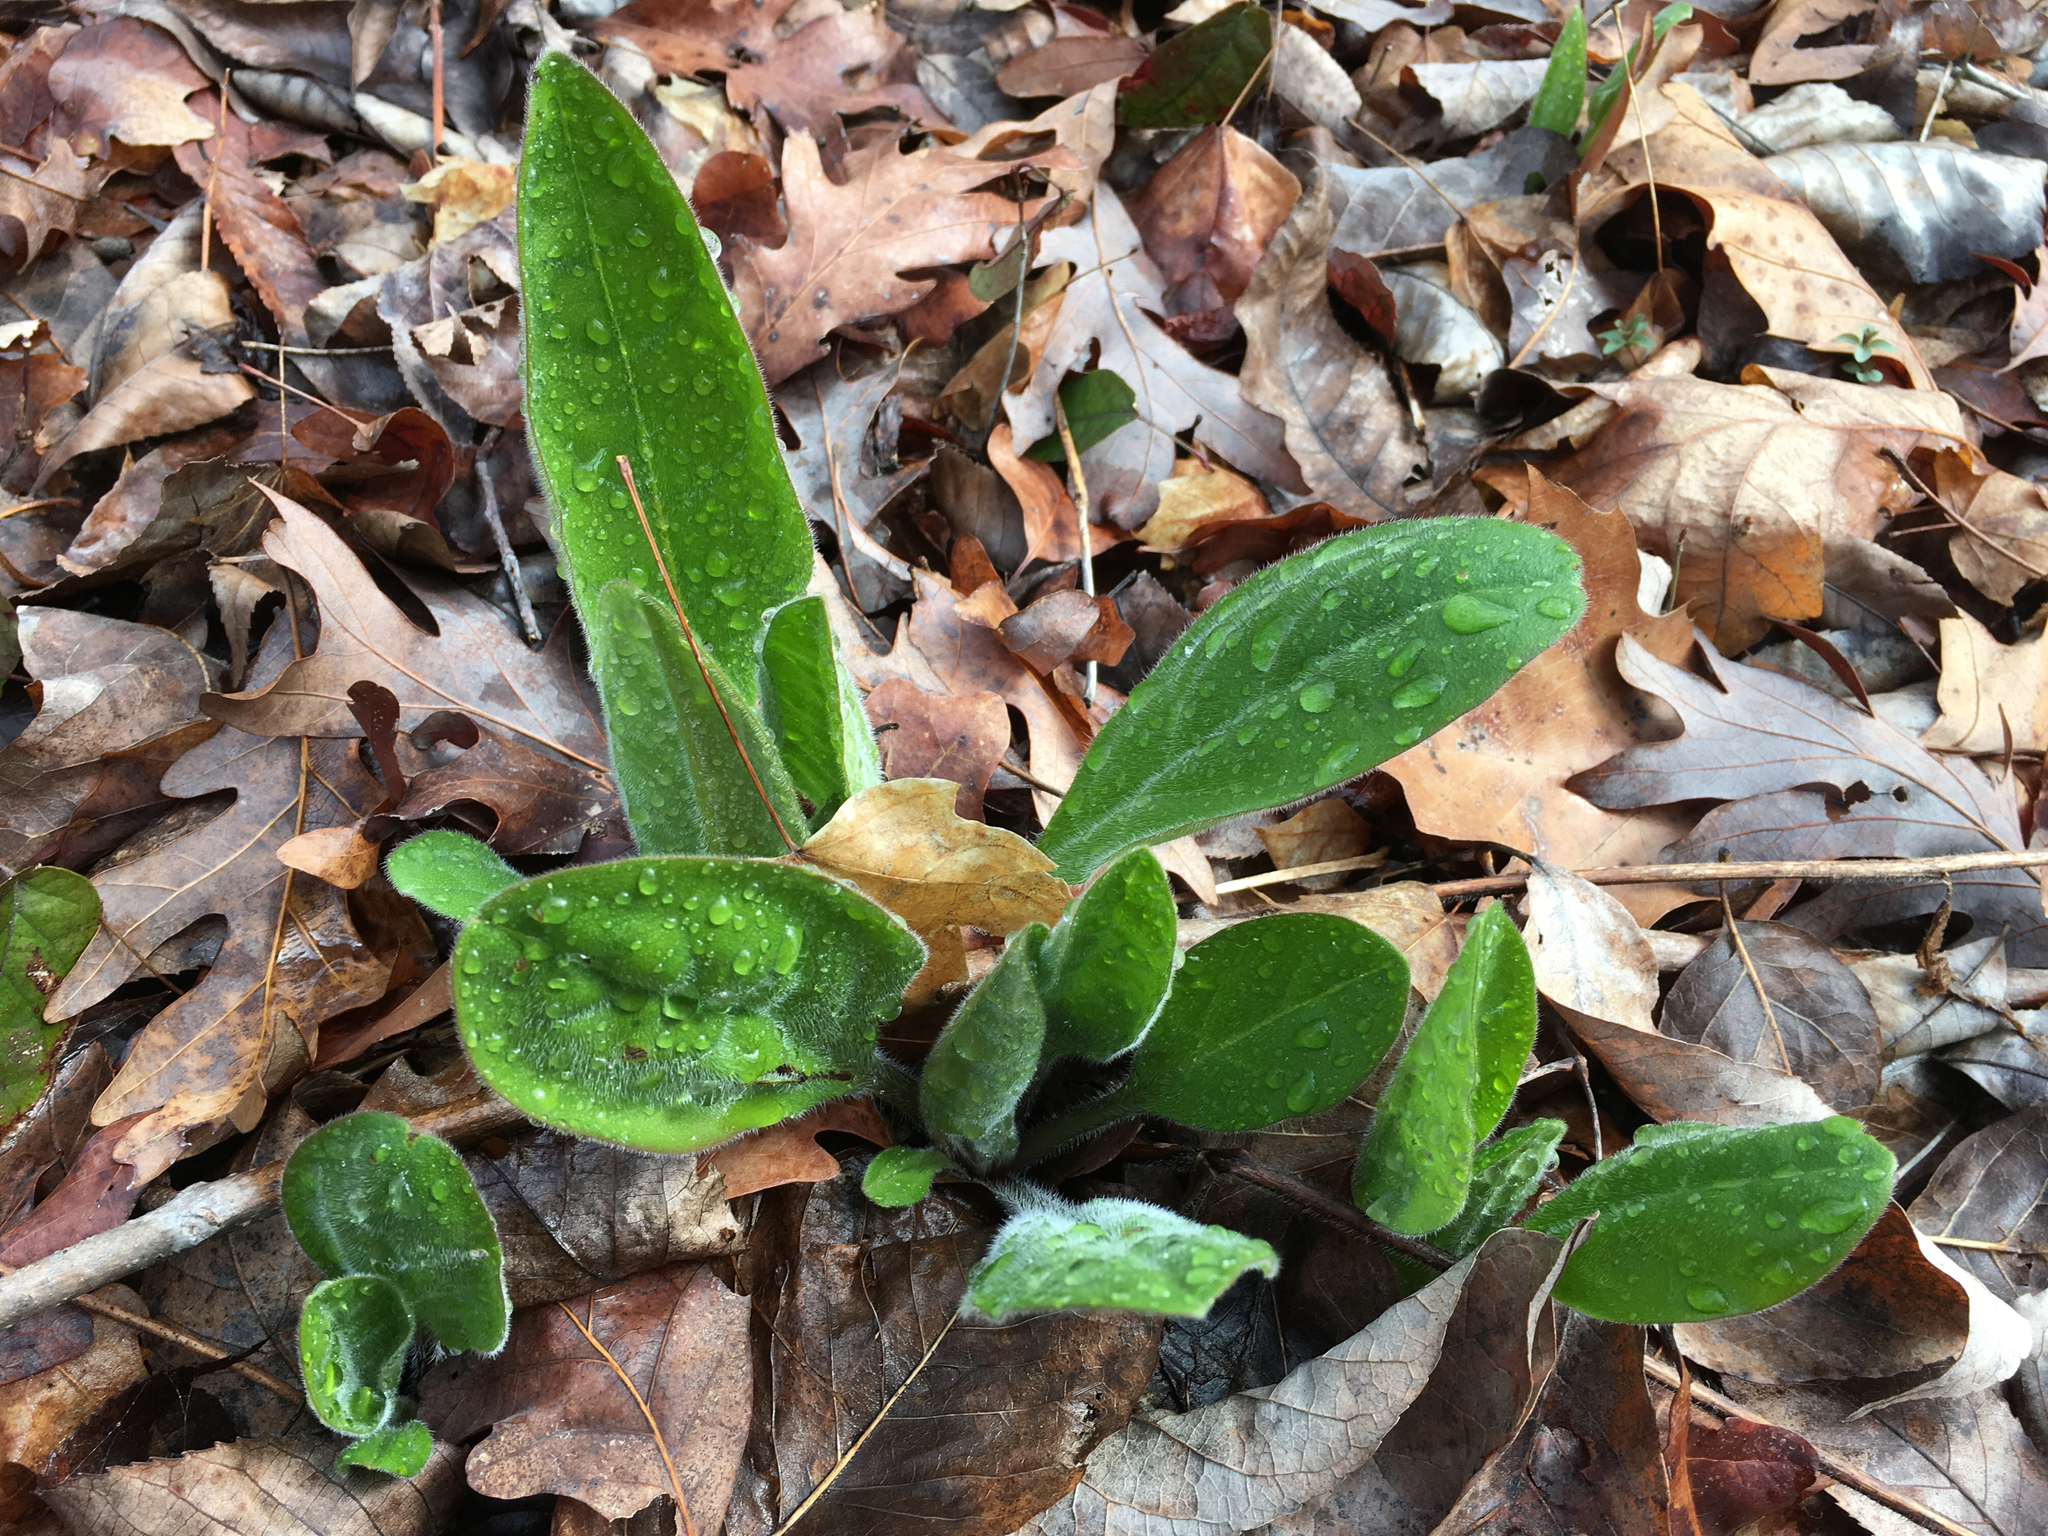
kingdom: Plantae
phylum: Tracheophyta
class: Magnoliopsida
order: Boraginales
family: Boraginaceae
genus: Andersonglossum
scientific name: Andersonglossum virginianum
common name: Wild comfrey
